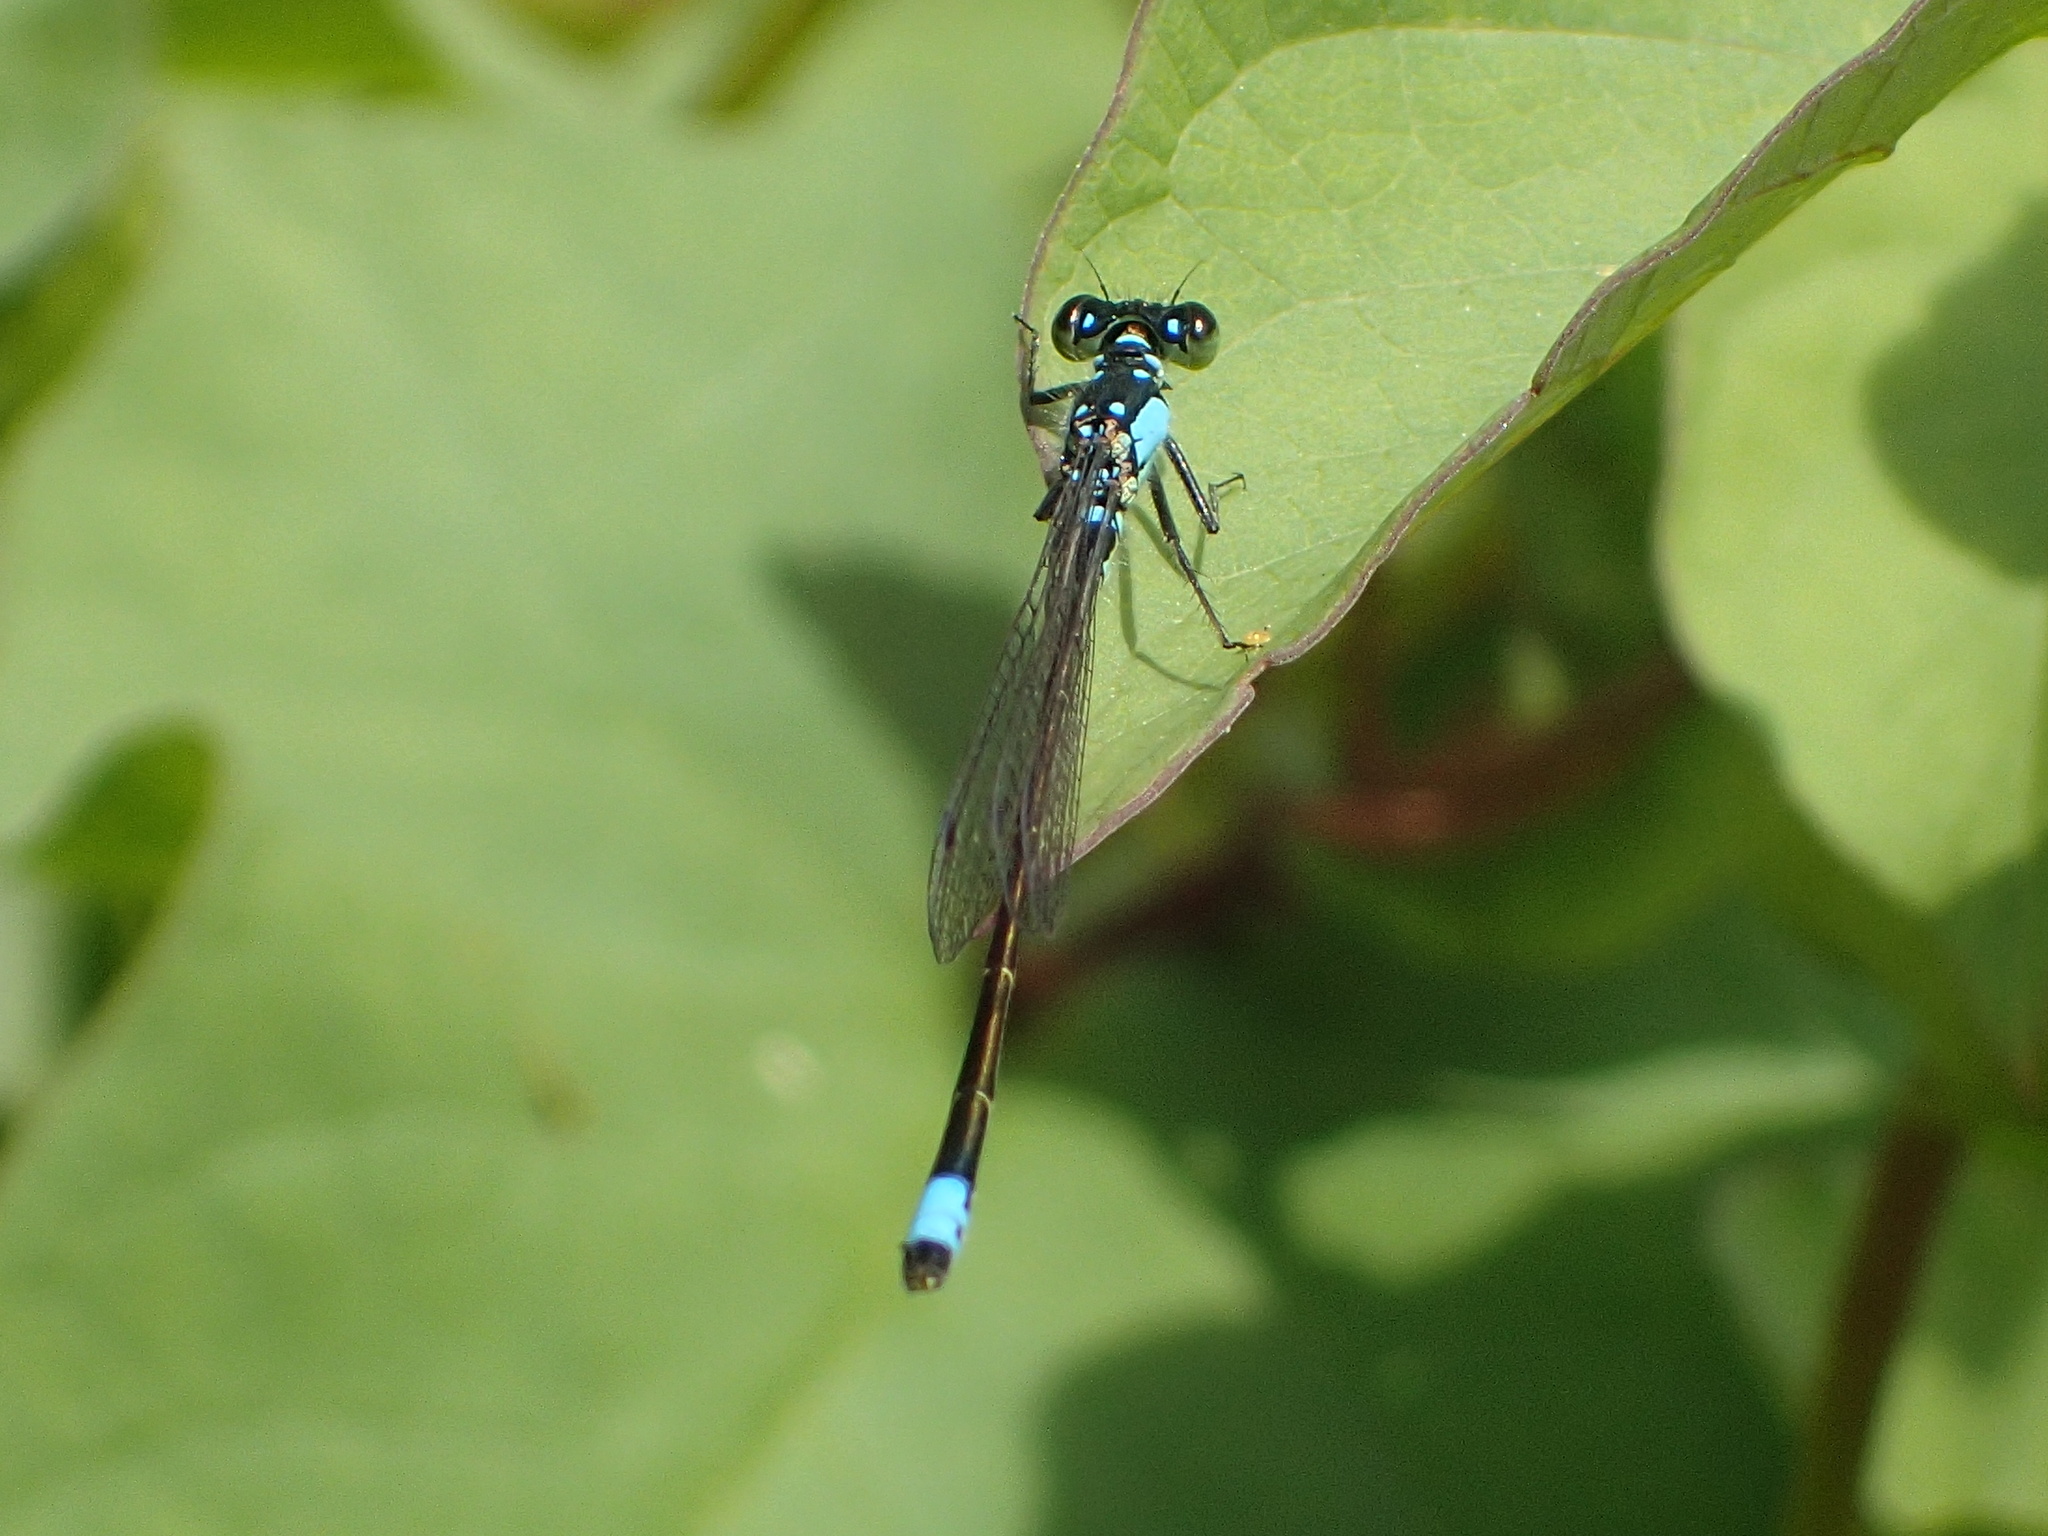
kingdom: Animalia
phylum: Arthropoda
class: Insecta
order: Odonata
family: Coenagrionidae
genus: Ischnura
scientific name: Ischnura cervula
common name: Pacific forktail
